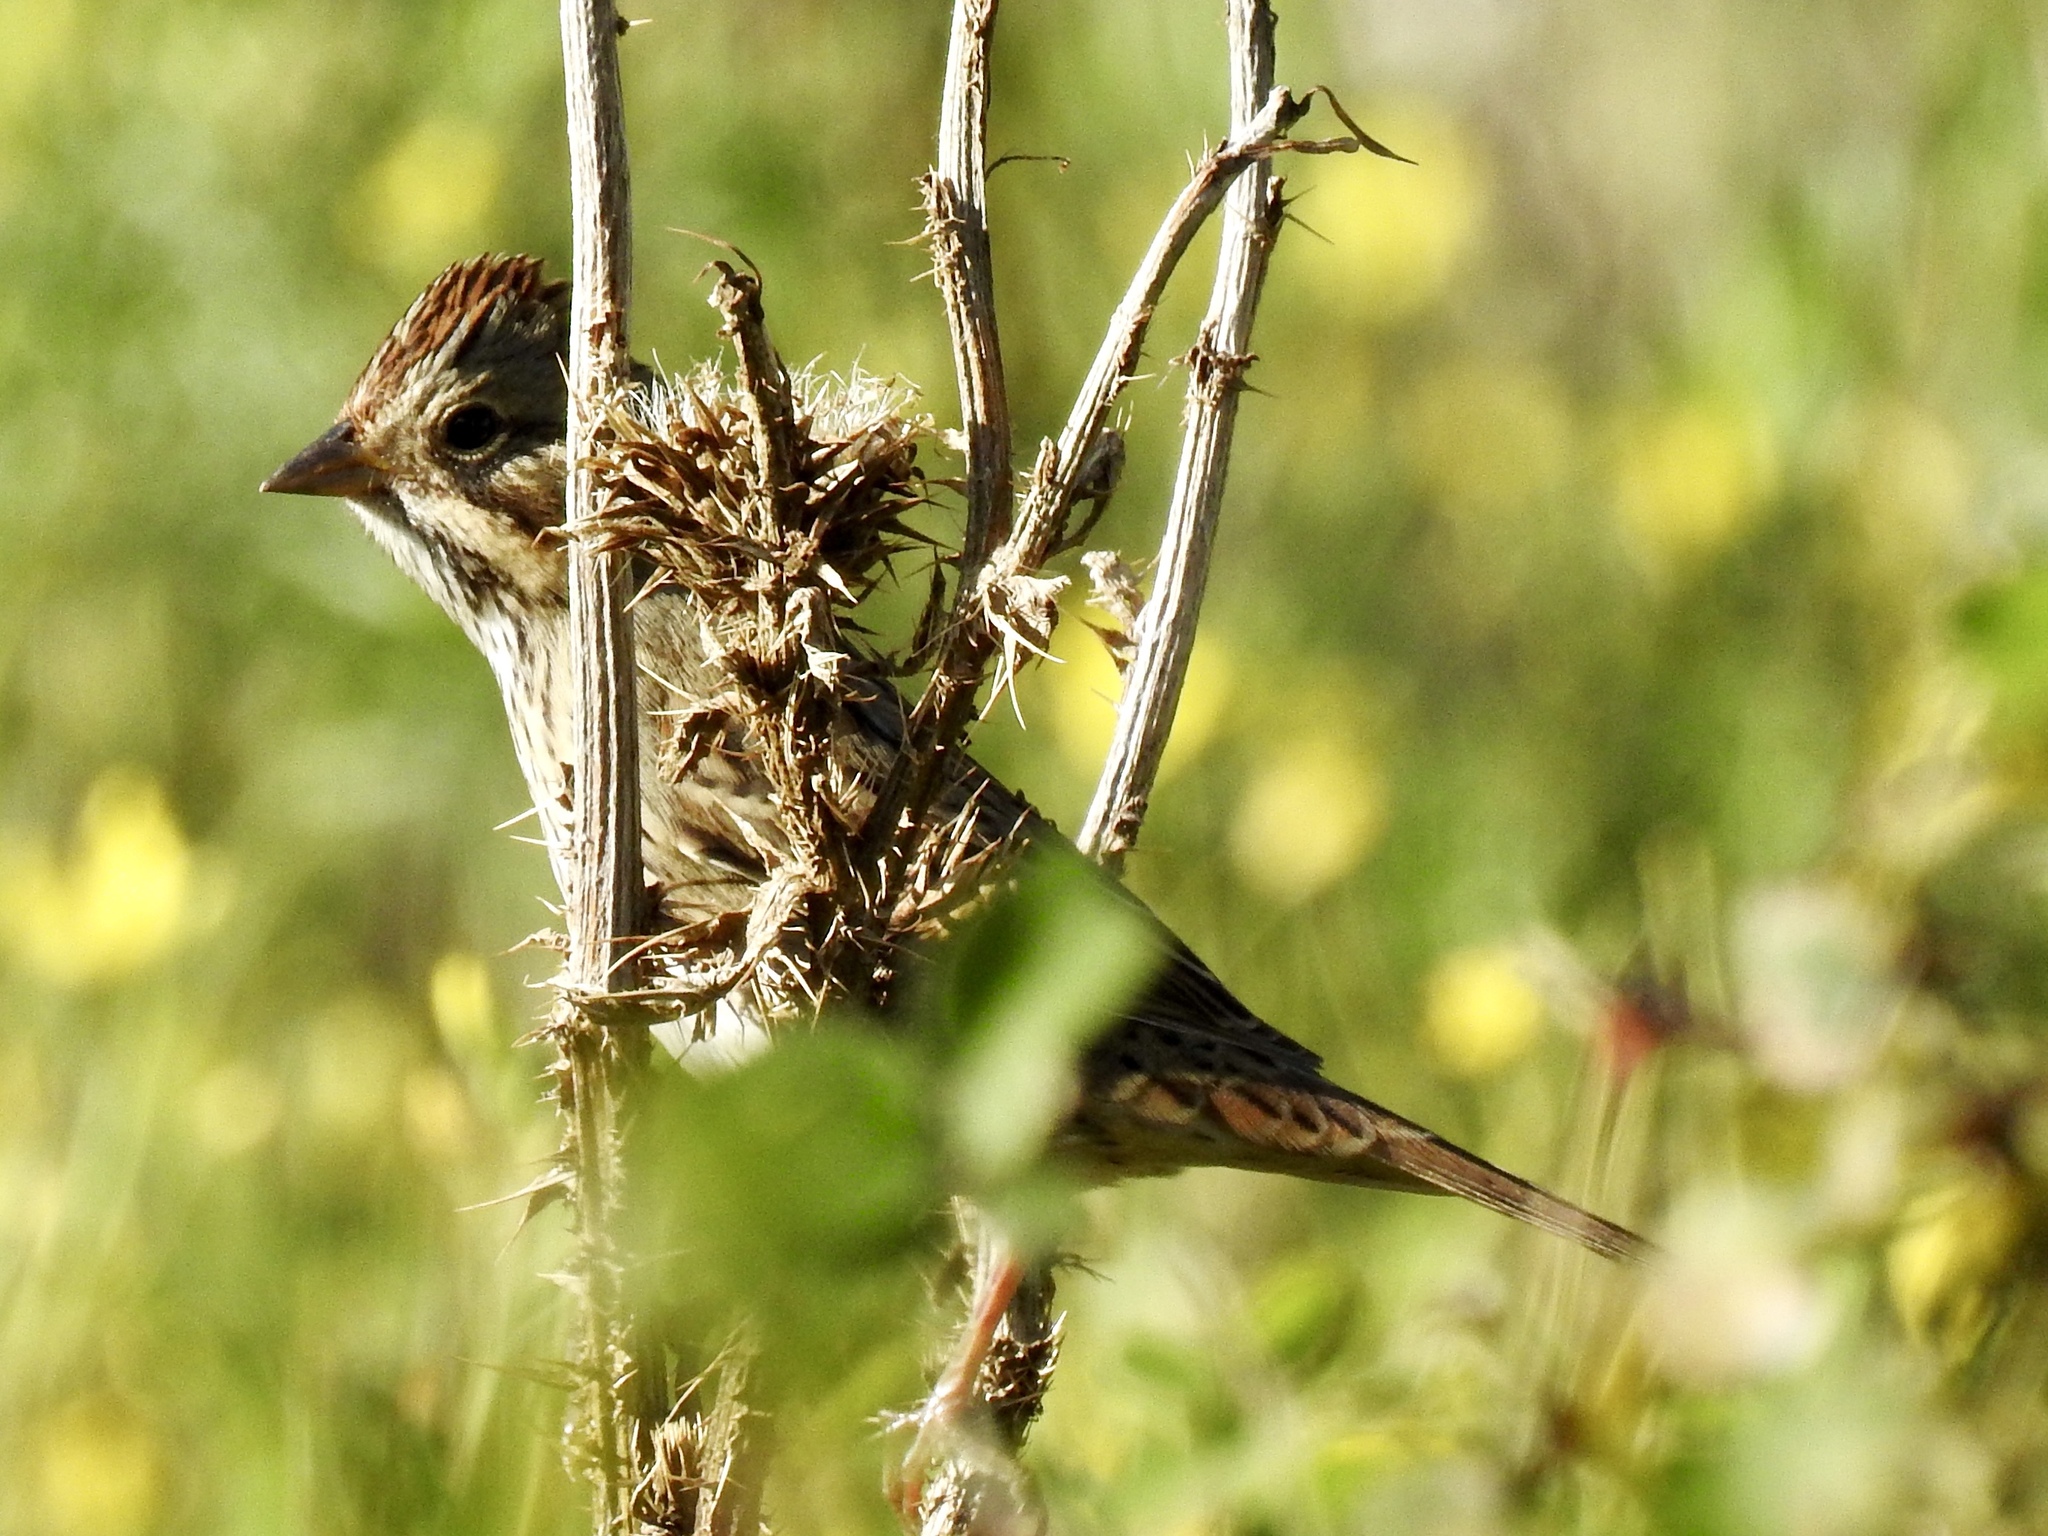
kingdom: Animalia
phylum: Chordata
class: Aves
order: Passeriformes
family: Passerellidae
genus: Melospiza
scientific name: Melospiza lincolnii
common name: Lincoln's sparrow
